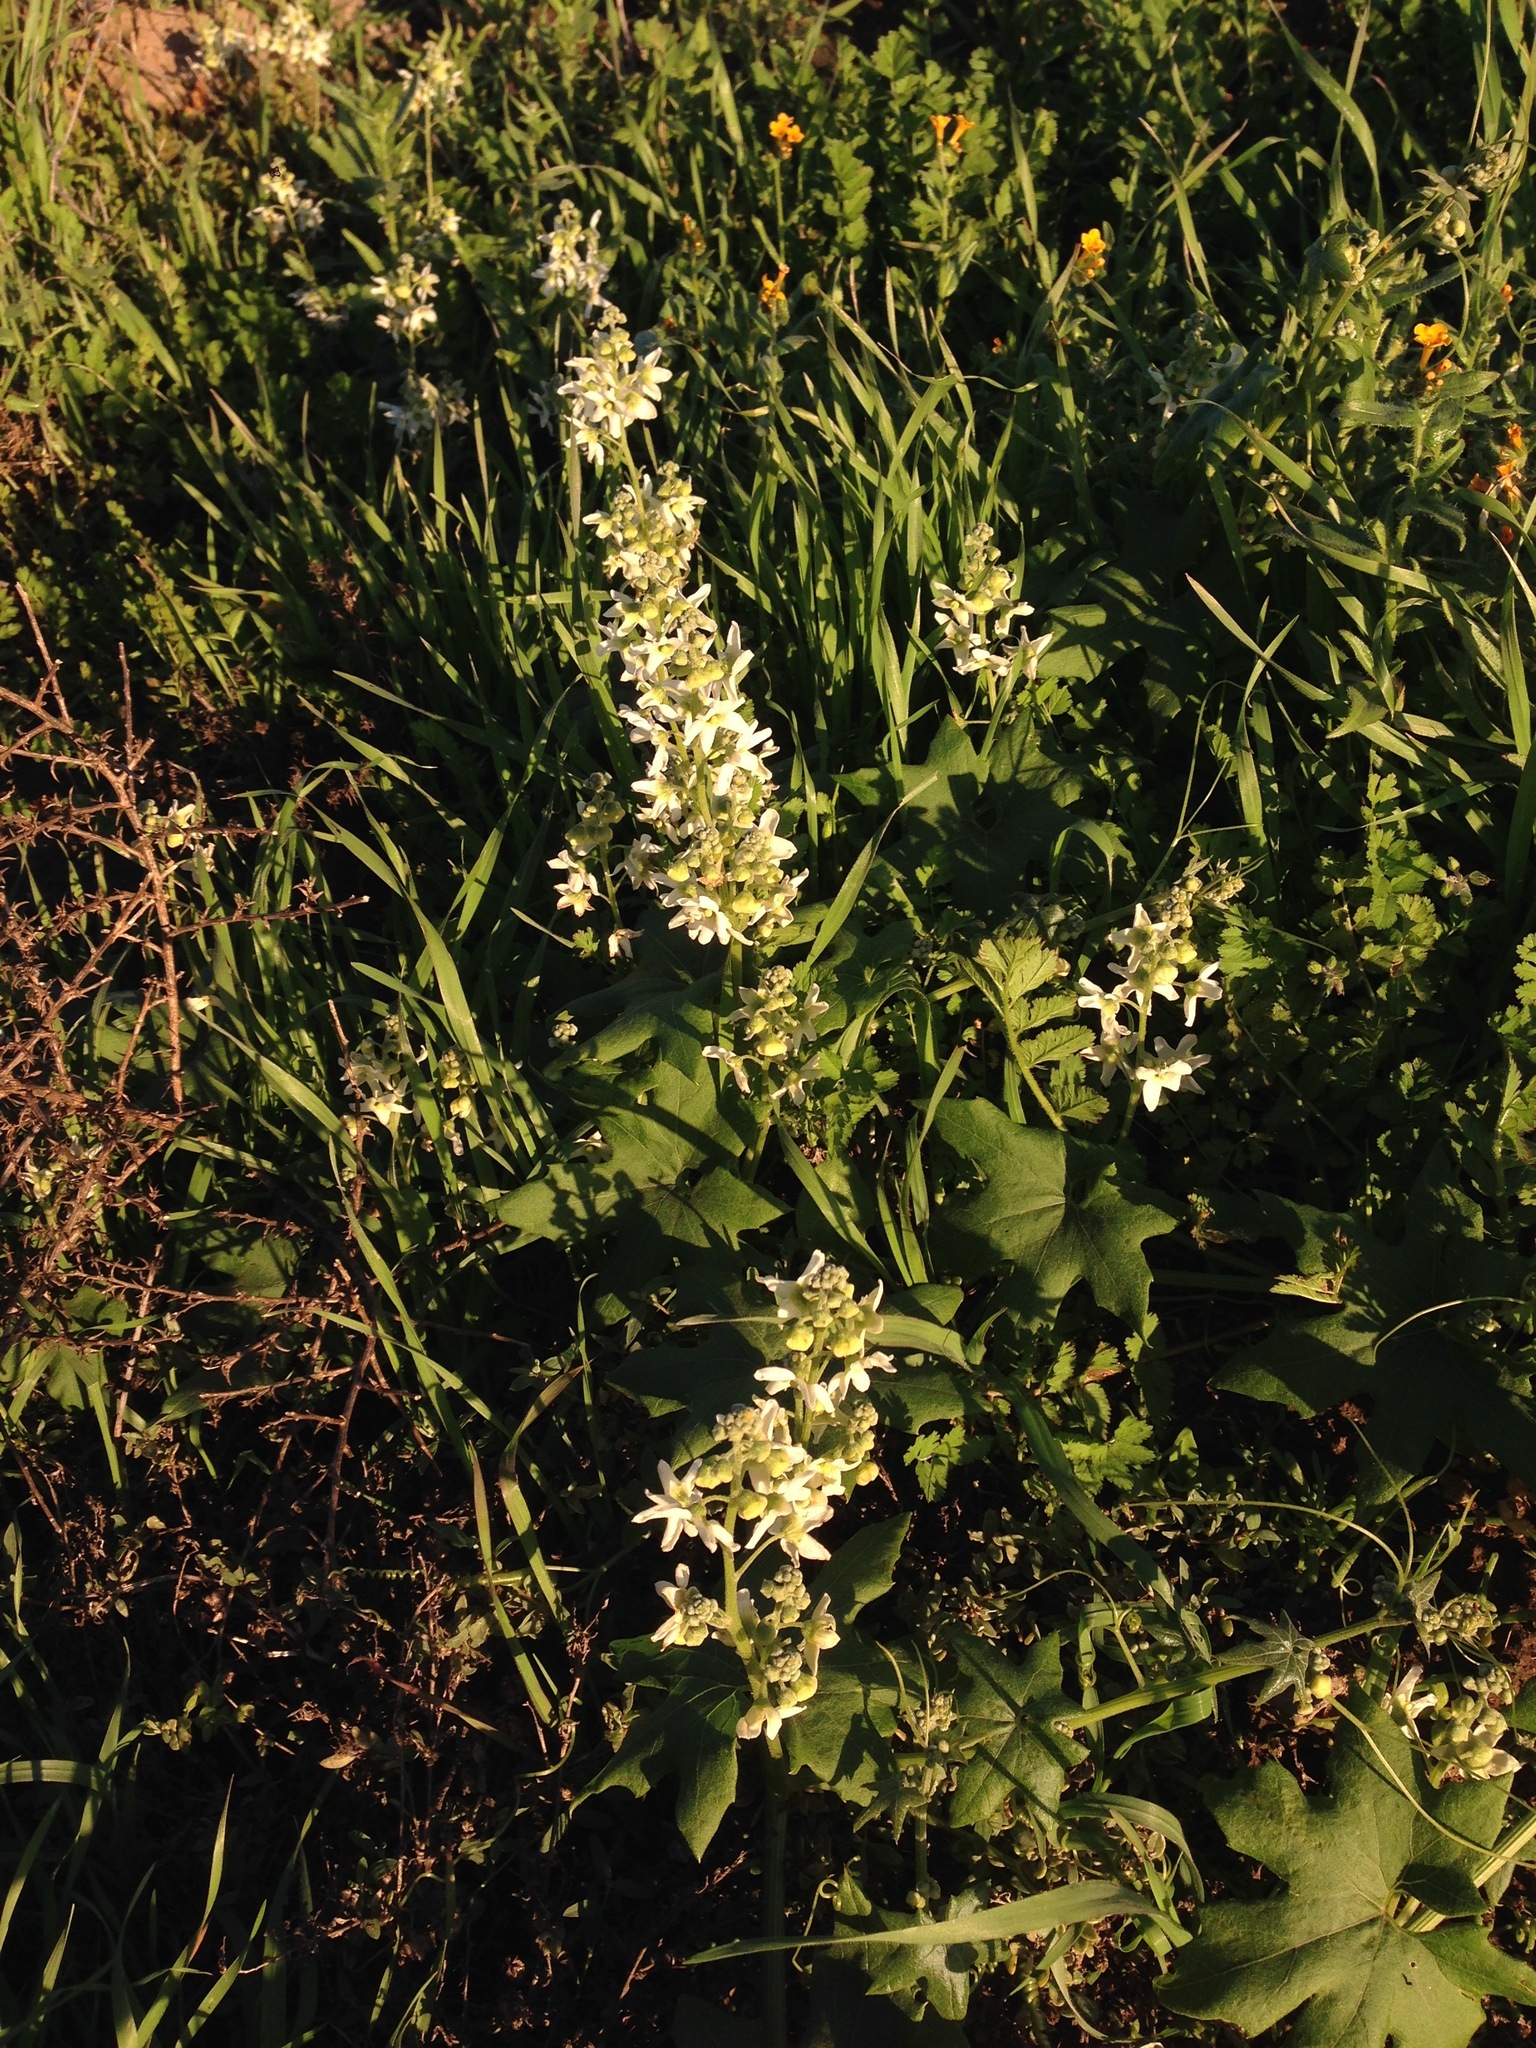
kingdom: Plantae
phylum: Tracheophyta
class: Magnoliopsida
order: Cucurbitales
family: Cucurbitaceae
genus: Marah
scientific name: Marah macrocarpa
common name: Cucamonga manroot
